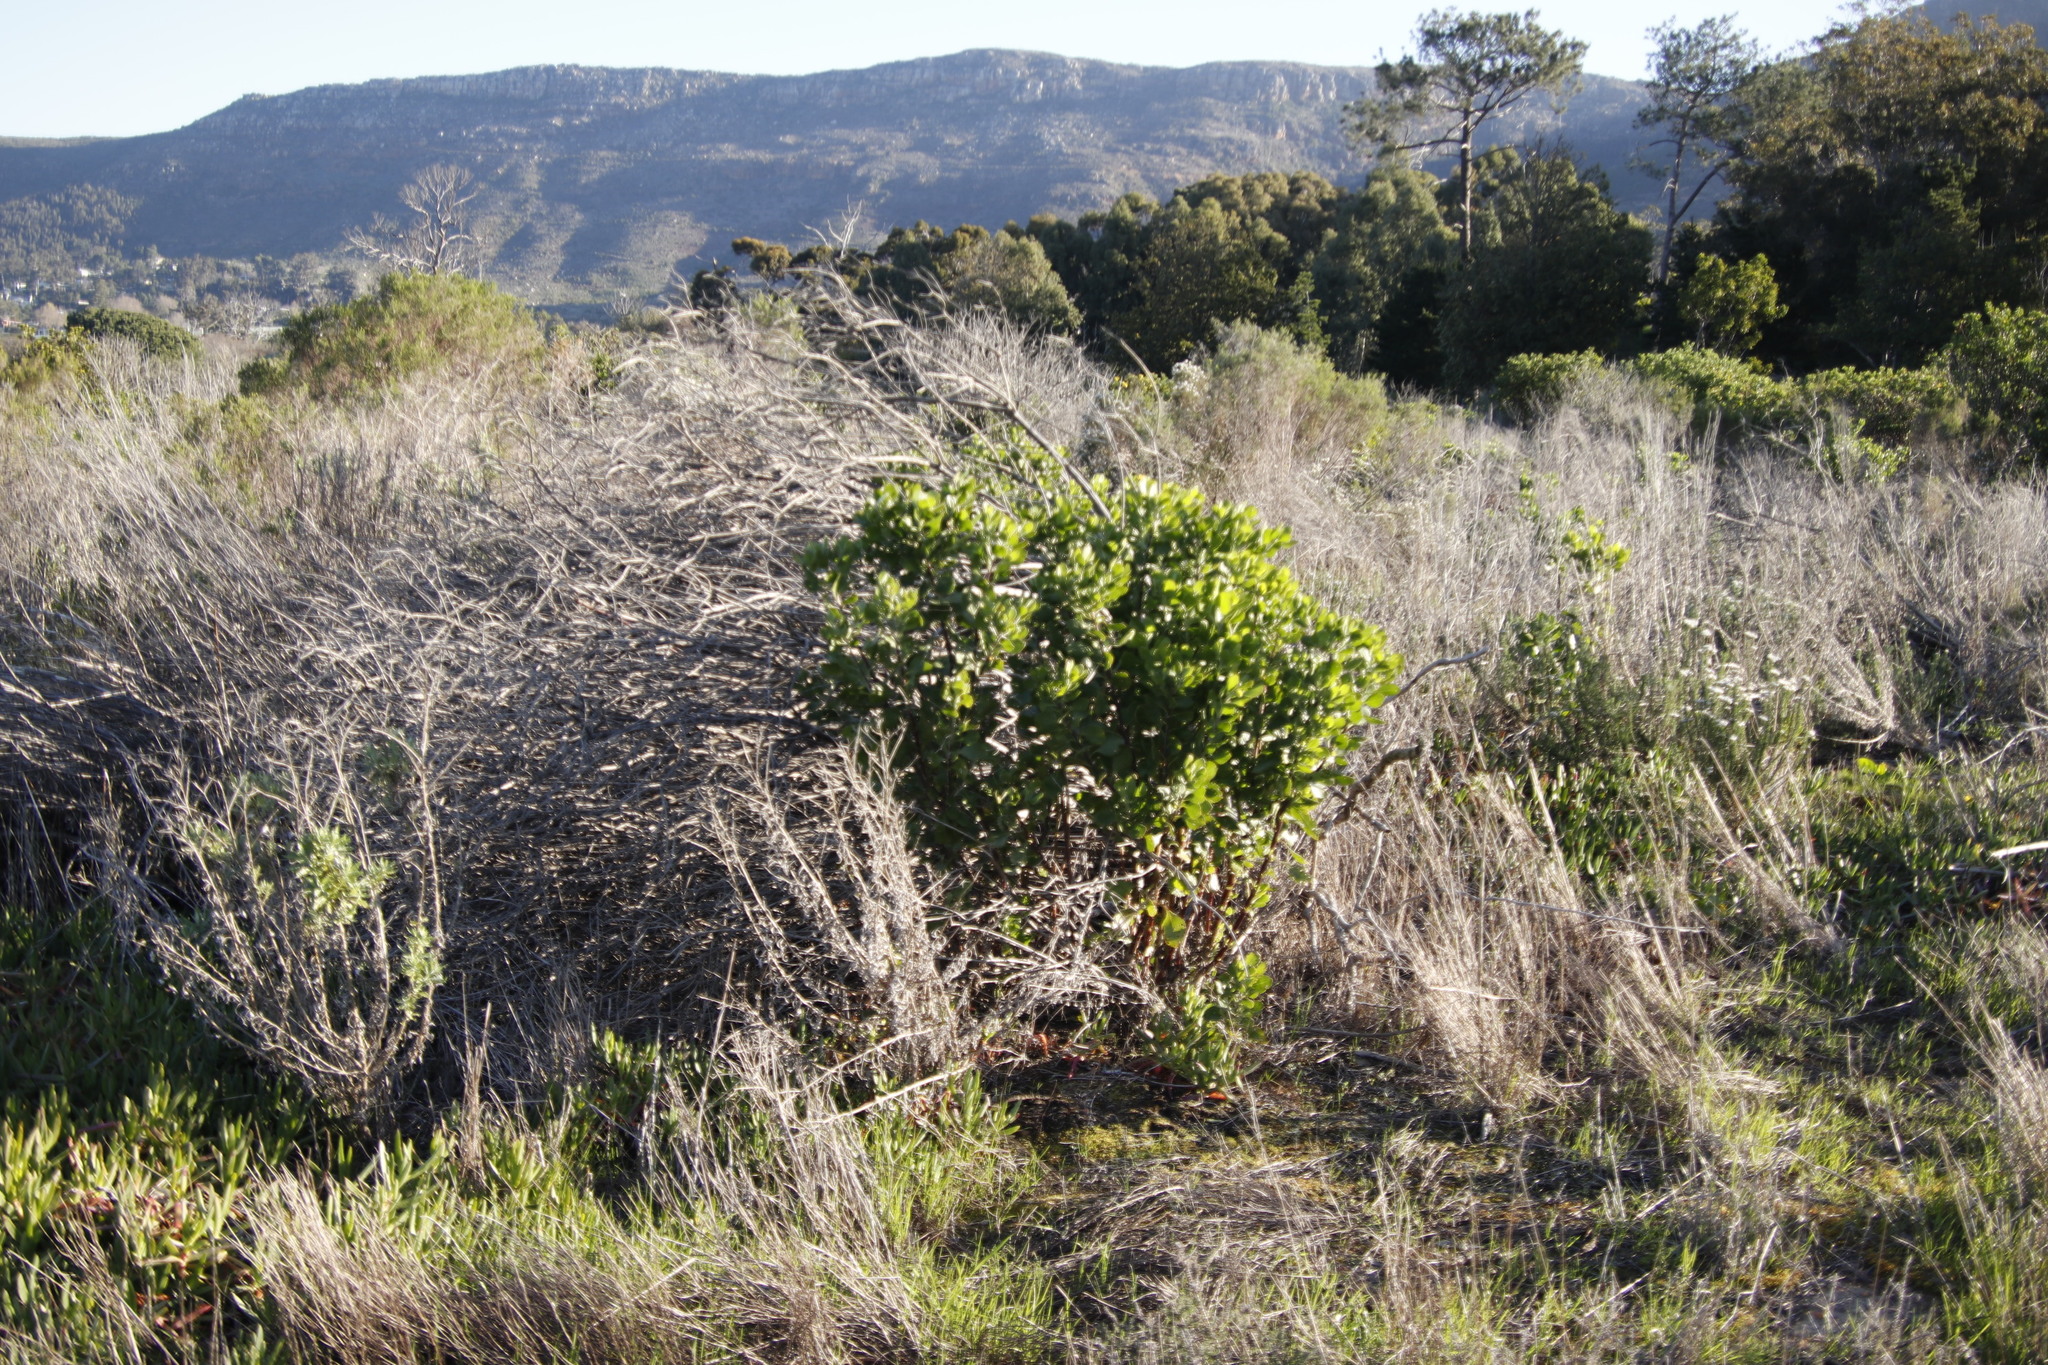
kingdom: Plantae
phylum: Tracheophyta
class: Magnoliopsida
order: Asterales
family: Asteraceae
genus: Osteospermum
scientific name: Osteospermum moniliferum
